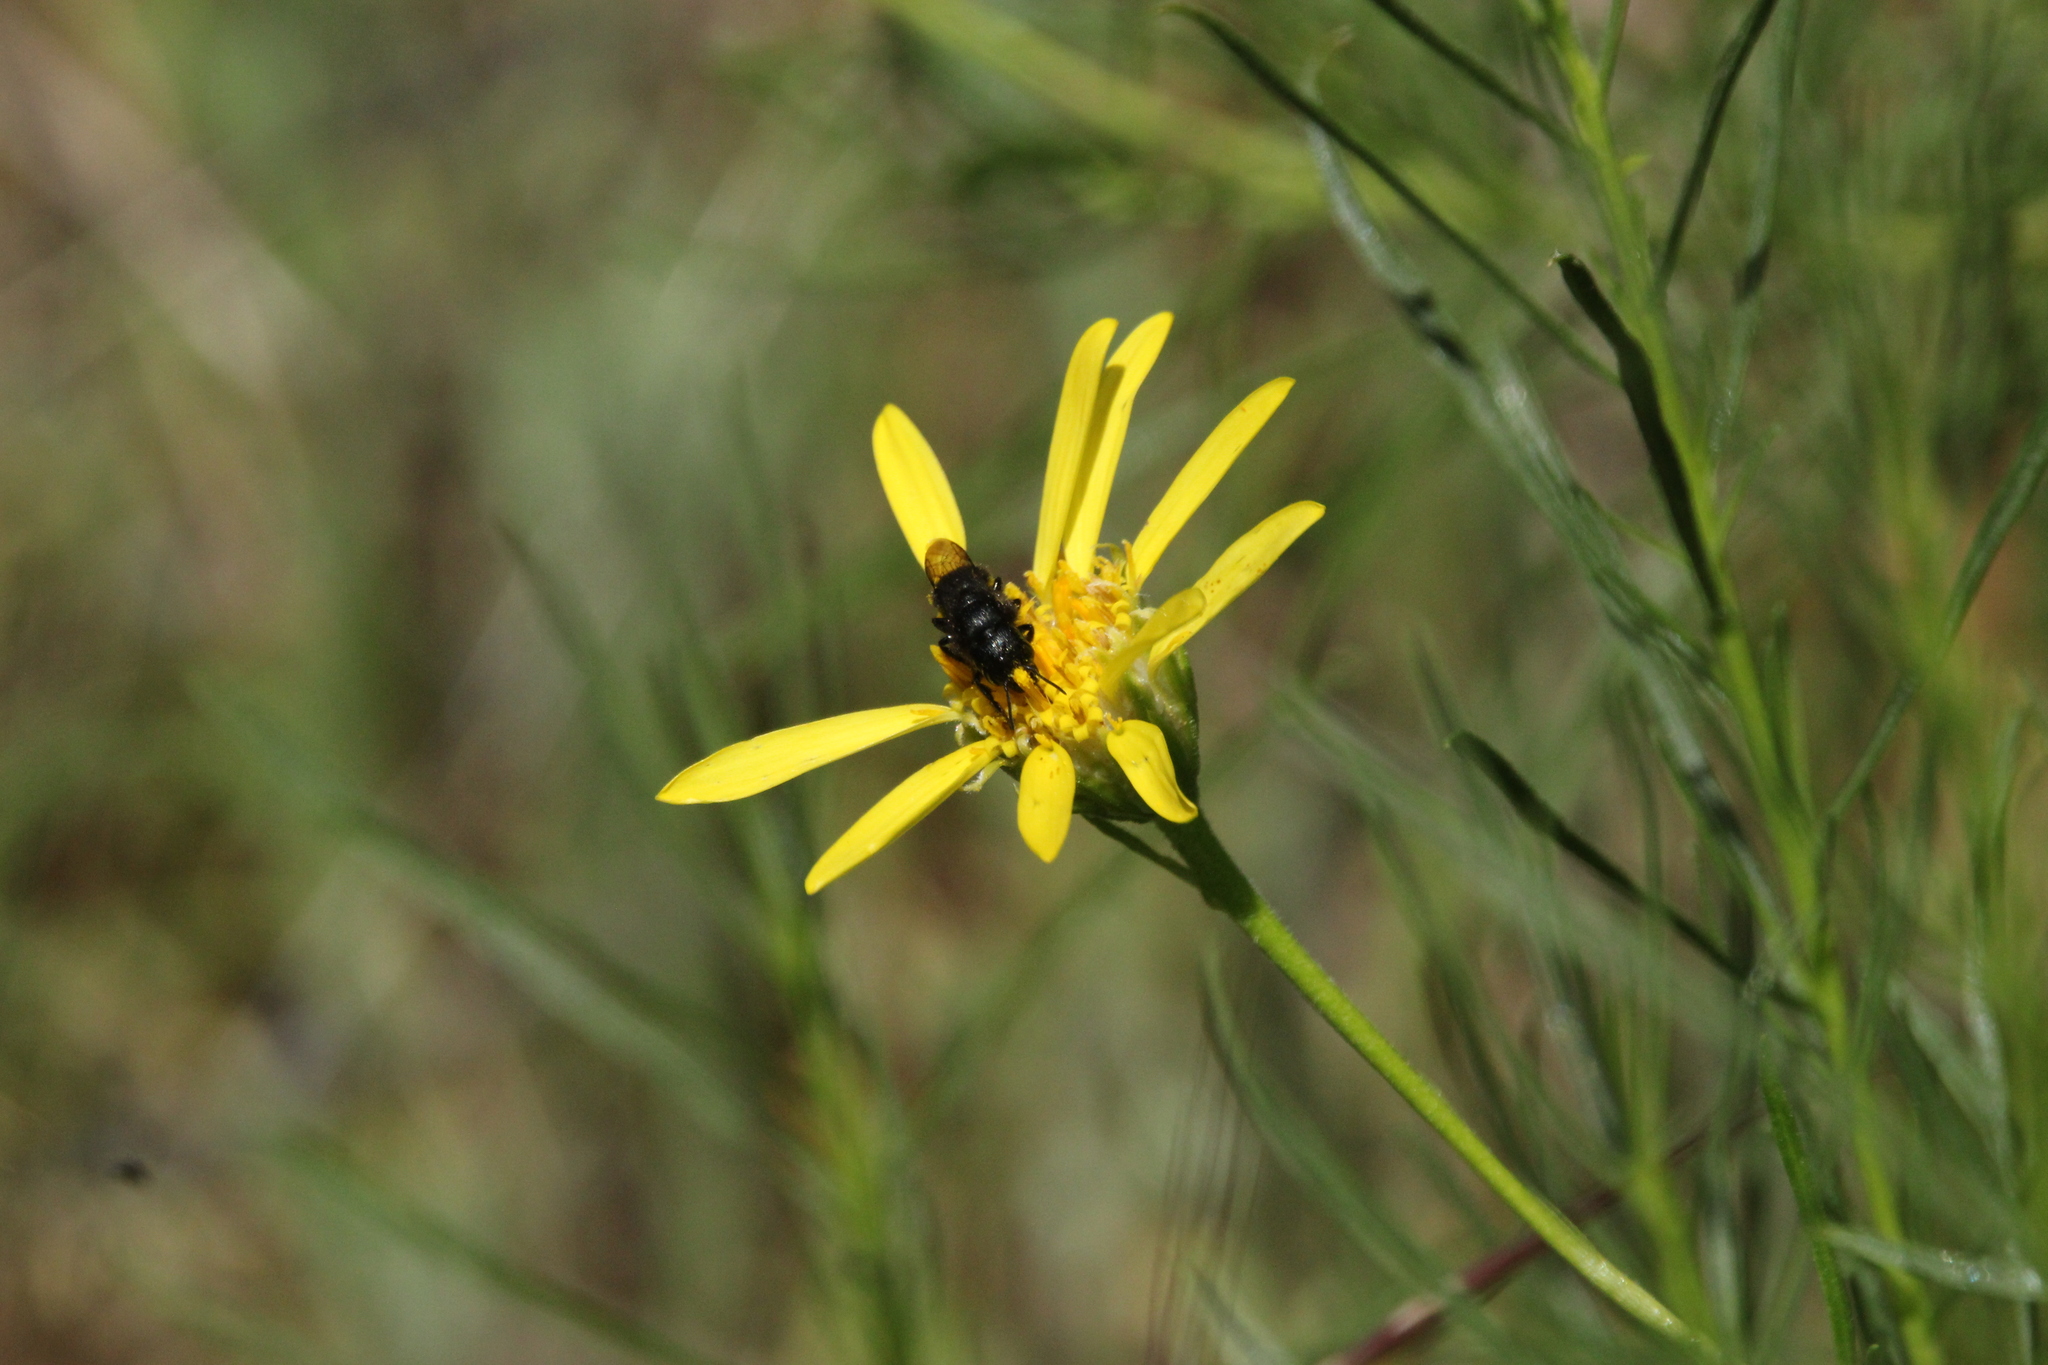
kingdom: Plantae
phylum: Tracheophyta
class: Magnoliopsida
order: Asterales
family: Asteraceae
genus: Ericameria
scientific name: Ericameria linearifolia
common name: Interior goldenbush
